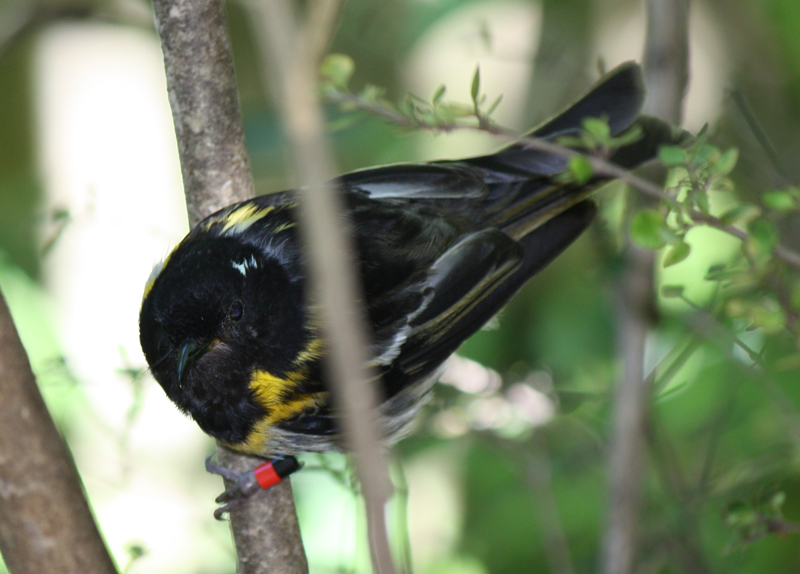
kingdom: Animalia
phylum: Chordata
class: Aves
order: Passeriformes
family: Notiomystidae
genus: Notiomystis
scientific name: Notiomystis cincta
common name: Stitchbird
